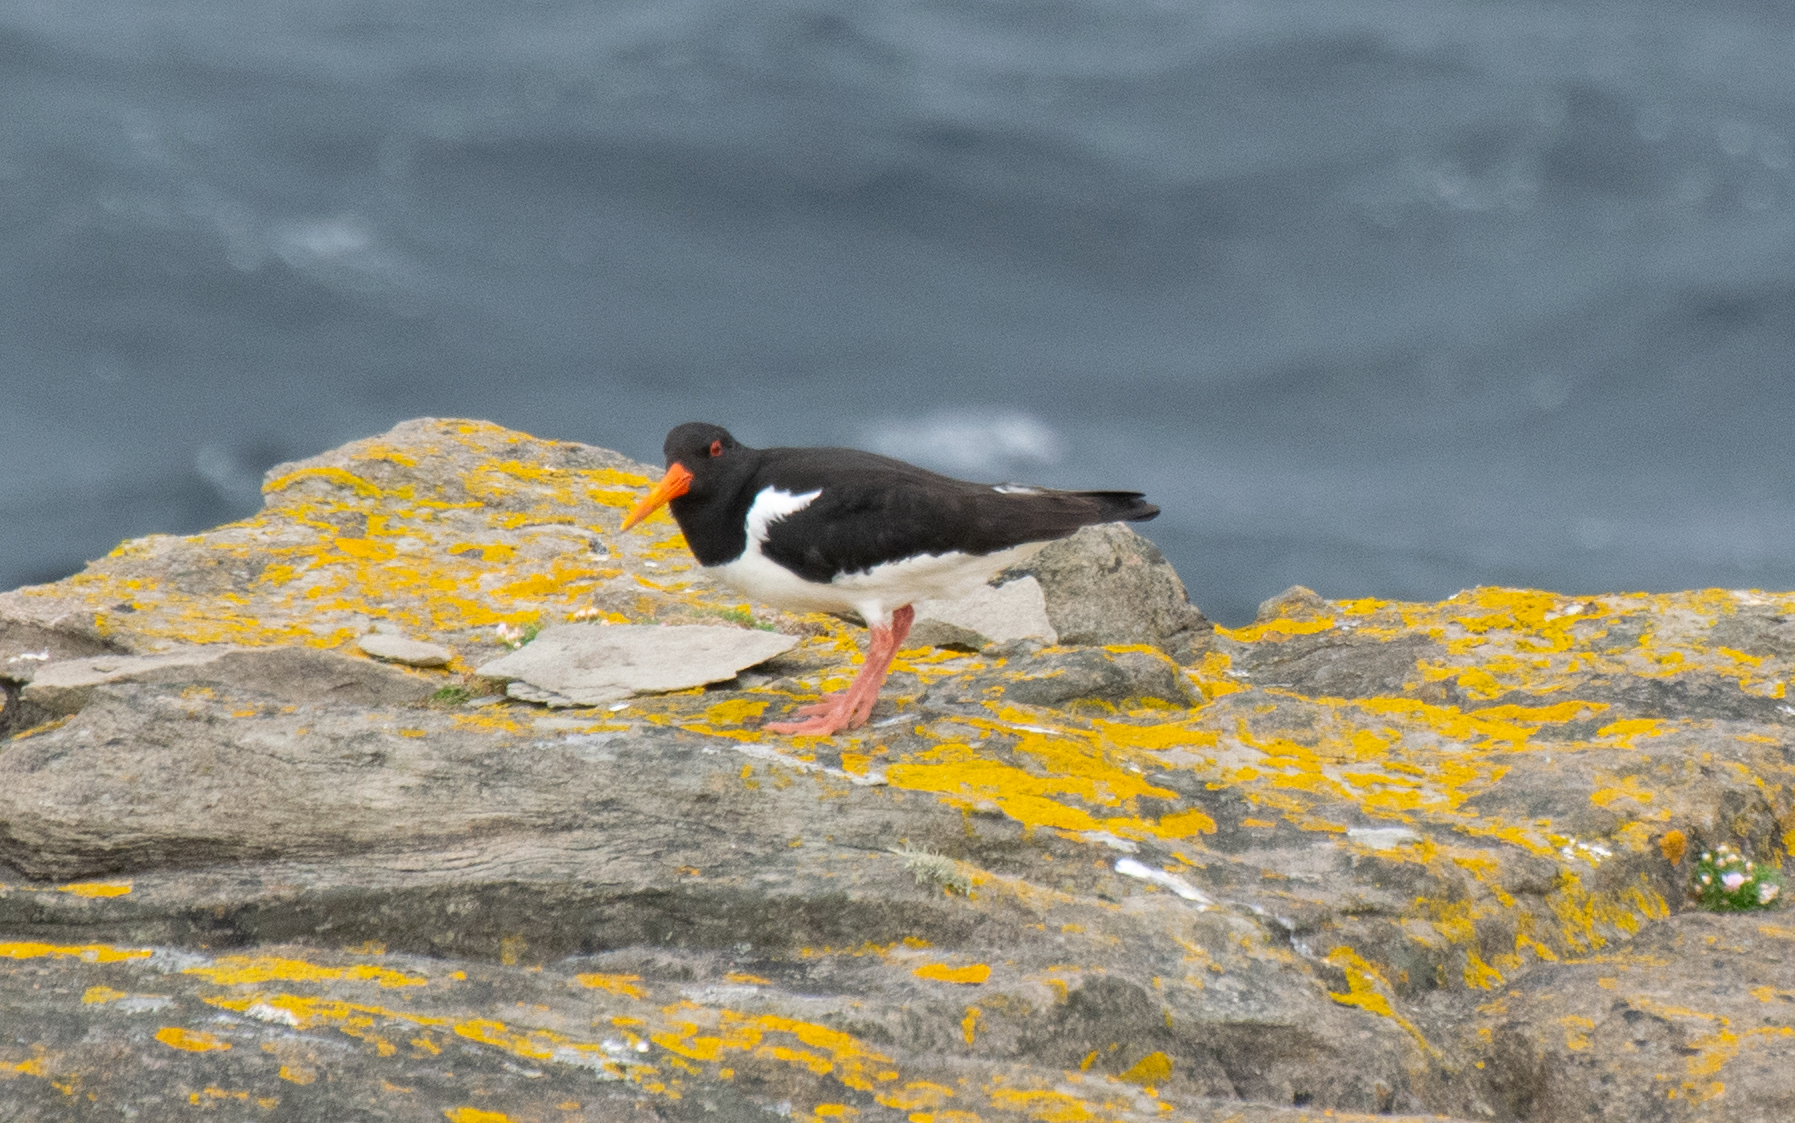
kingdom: Animalia
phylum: Chordata
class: Aves
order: Charadriiformes
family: Haematopodidae
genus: Haematopus
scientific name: Haematopus ostralegus
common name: Eurasian oystercatcher
